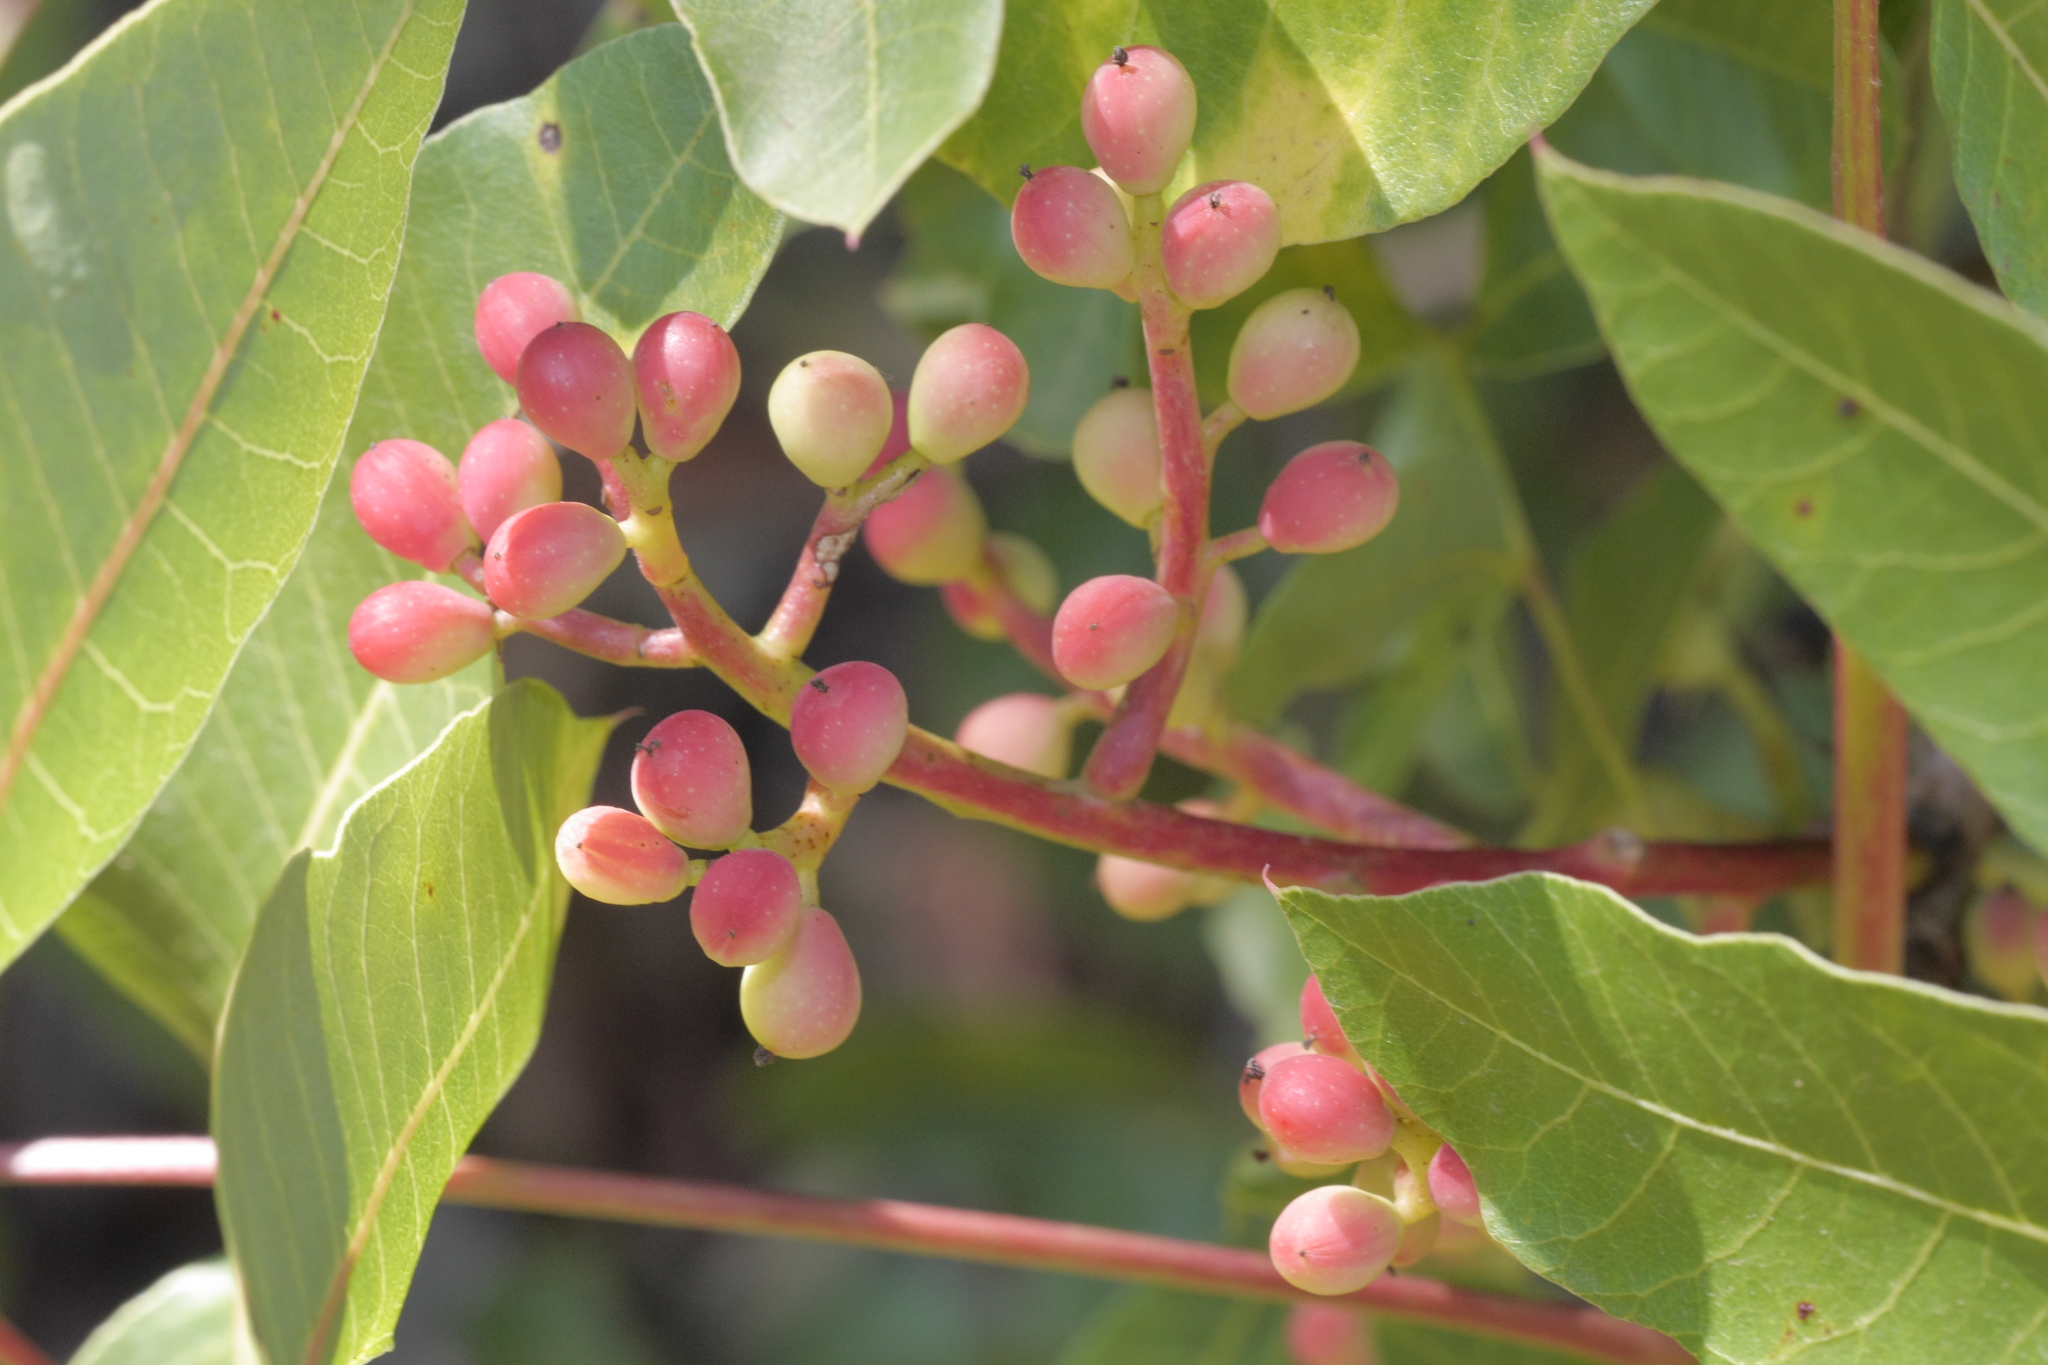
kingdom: Plantae
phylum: Tracheophyta
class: Magnoliopsida
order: Sapindales
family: Anacardiaceae
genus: Pistacia
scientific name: Pistacia terebinthus
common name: Terebinth
